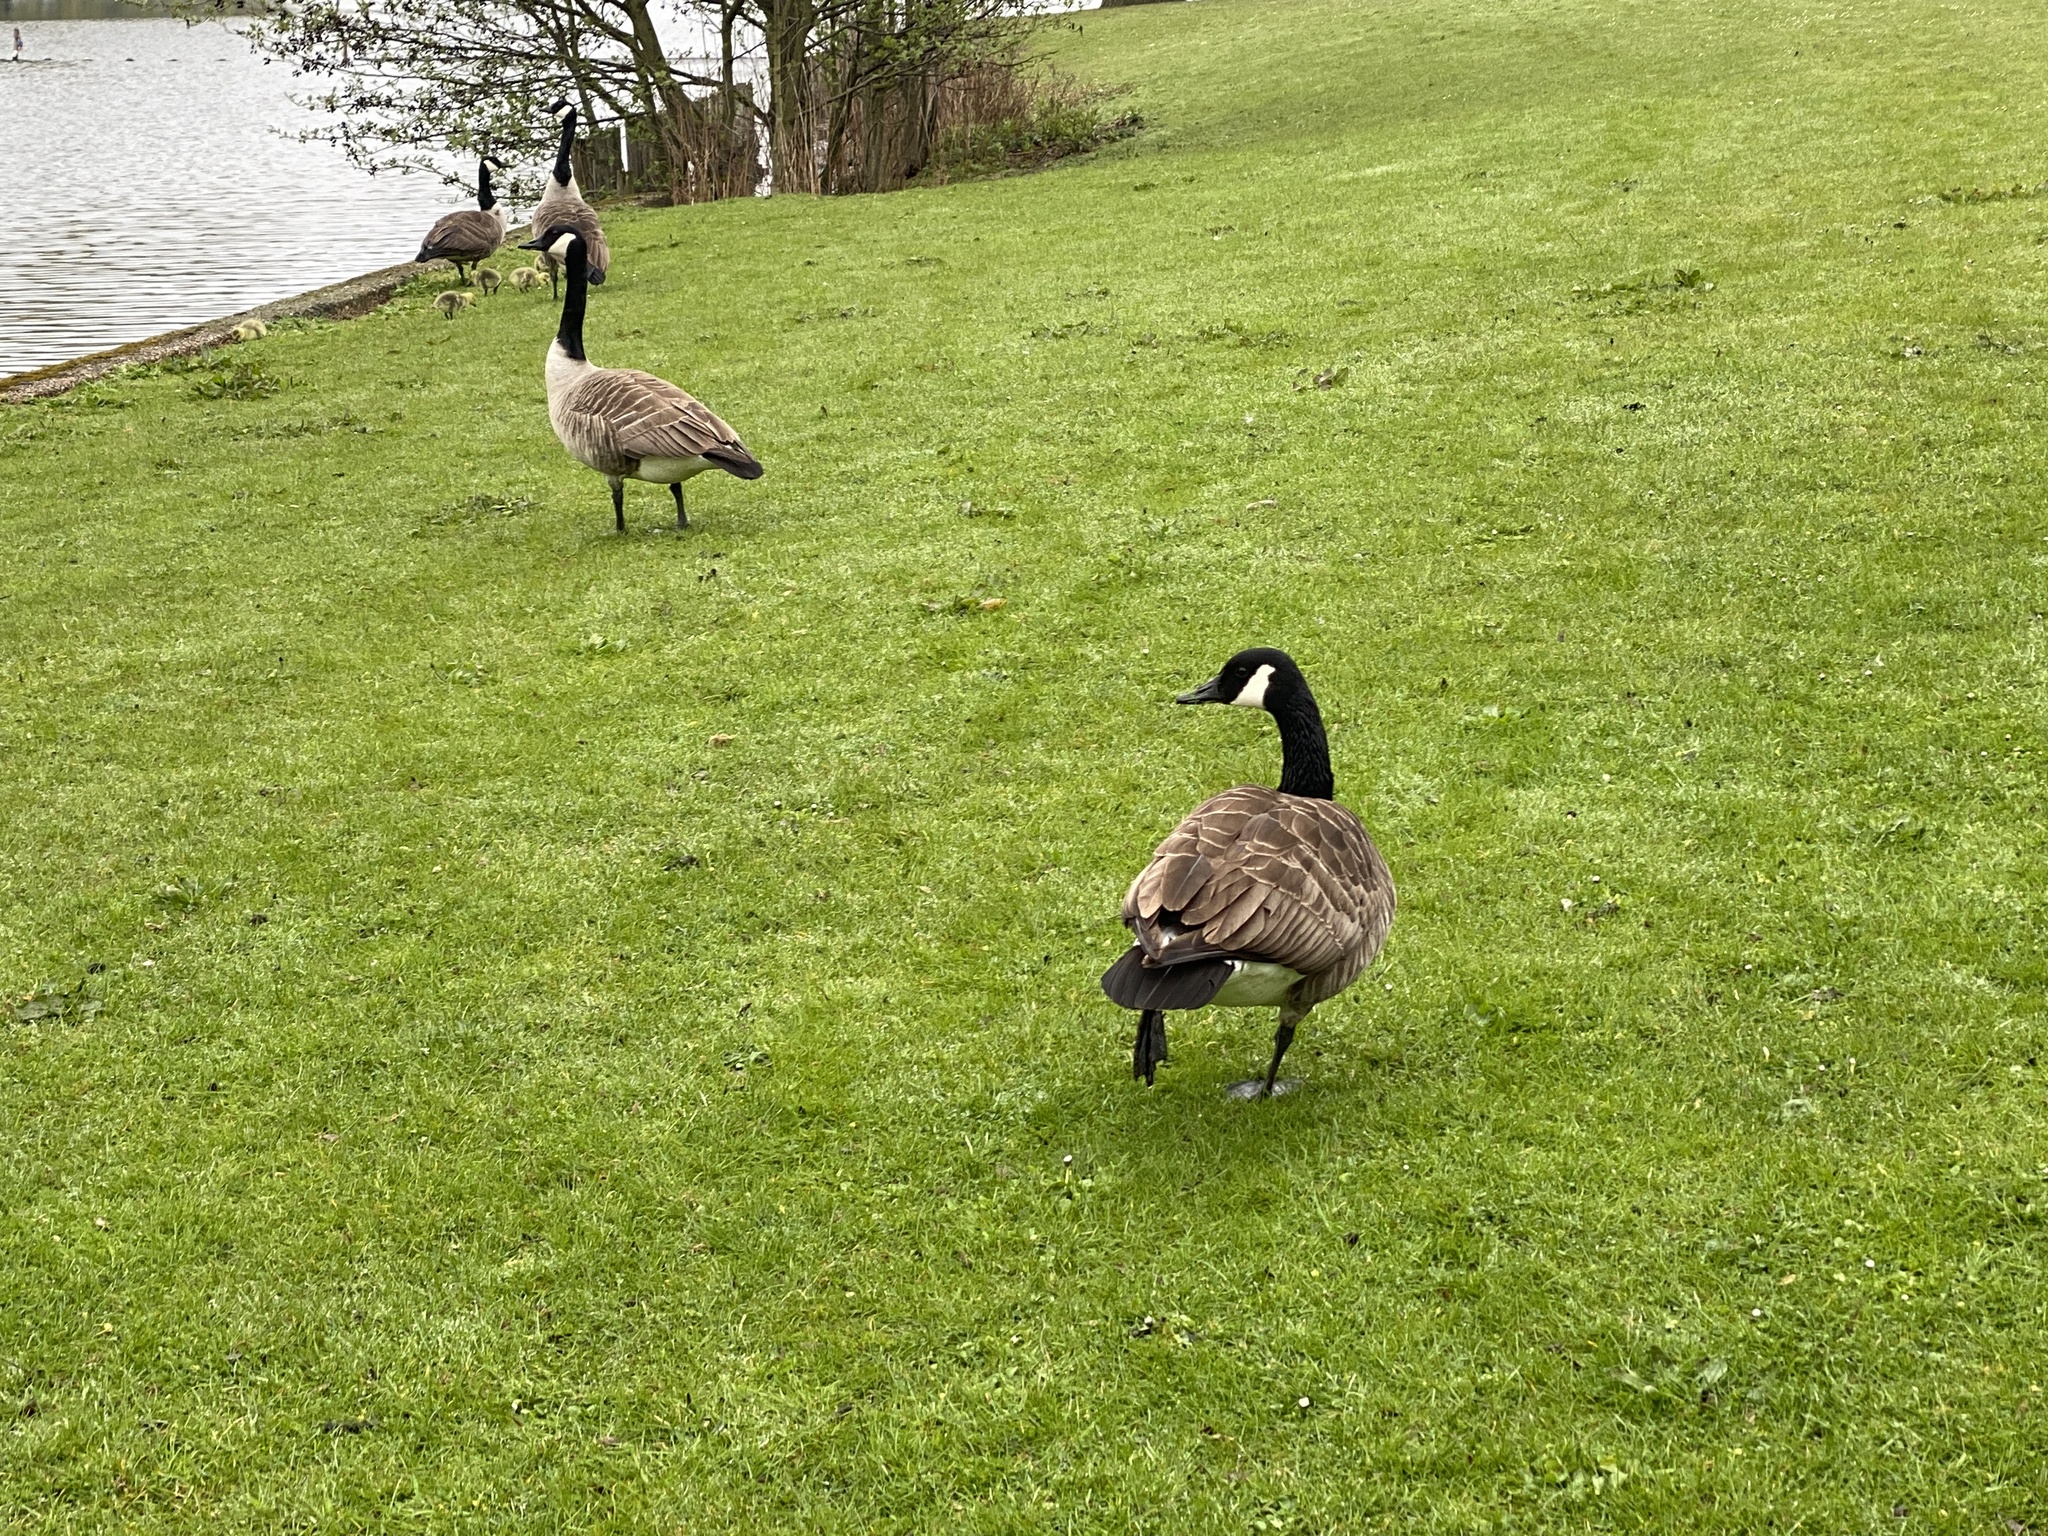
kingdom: Animalia
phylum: Chordata
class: Aves
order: Anseriformes
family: Anatidae
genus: Branta
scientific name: Branta canadensis
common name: Canada goose
